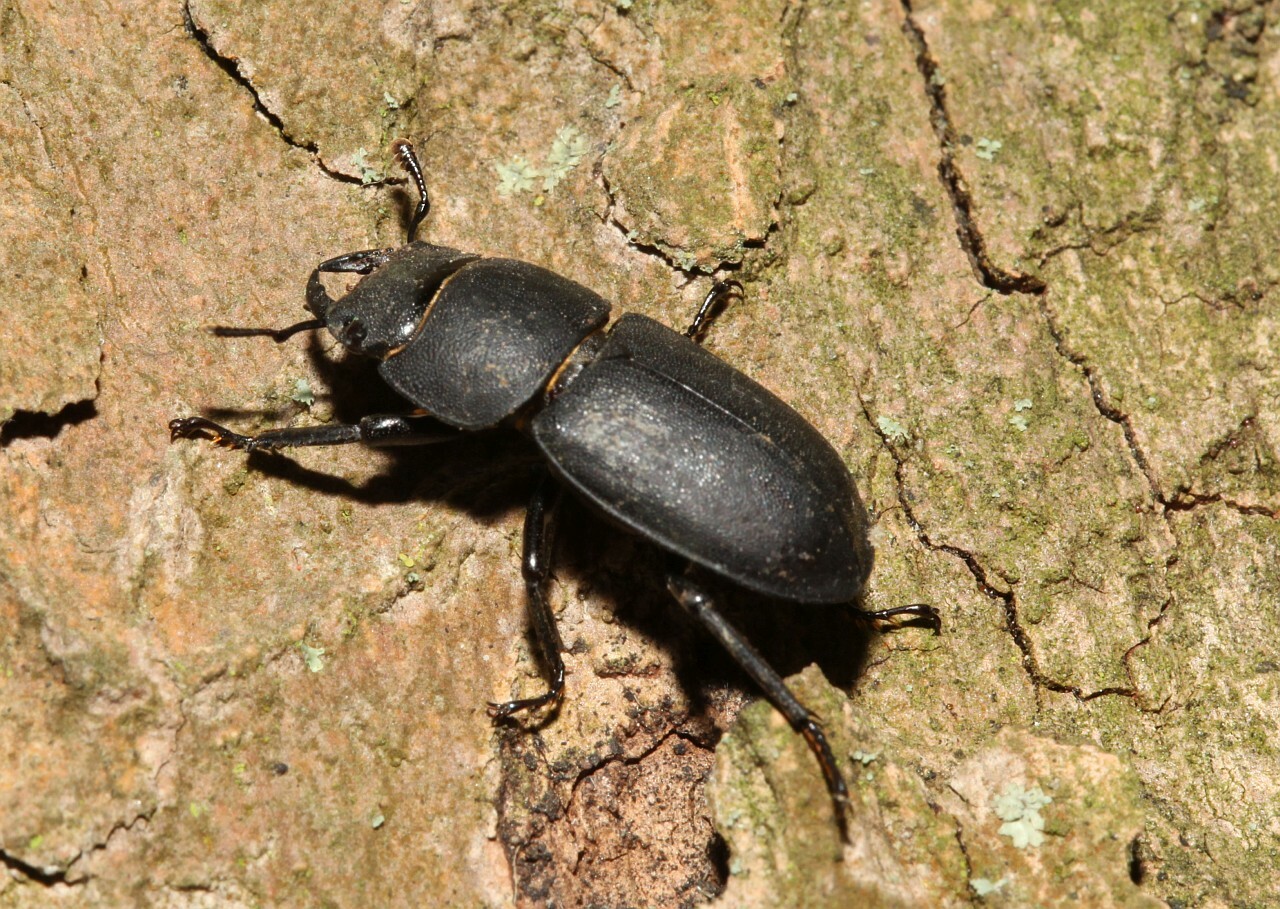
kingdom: Animalia
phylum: Arthropoda
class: Insecta
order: Coleoptera
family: Lucanidae
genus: Dorcus
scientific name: Dorcus parallelipipedus
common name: Lesser stag beetle
